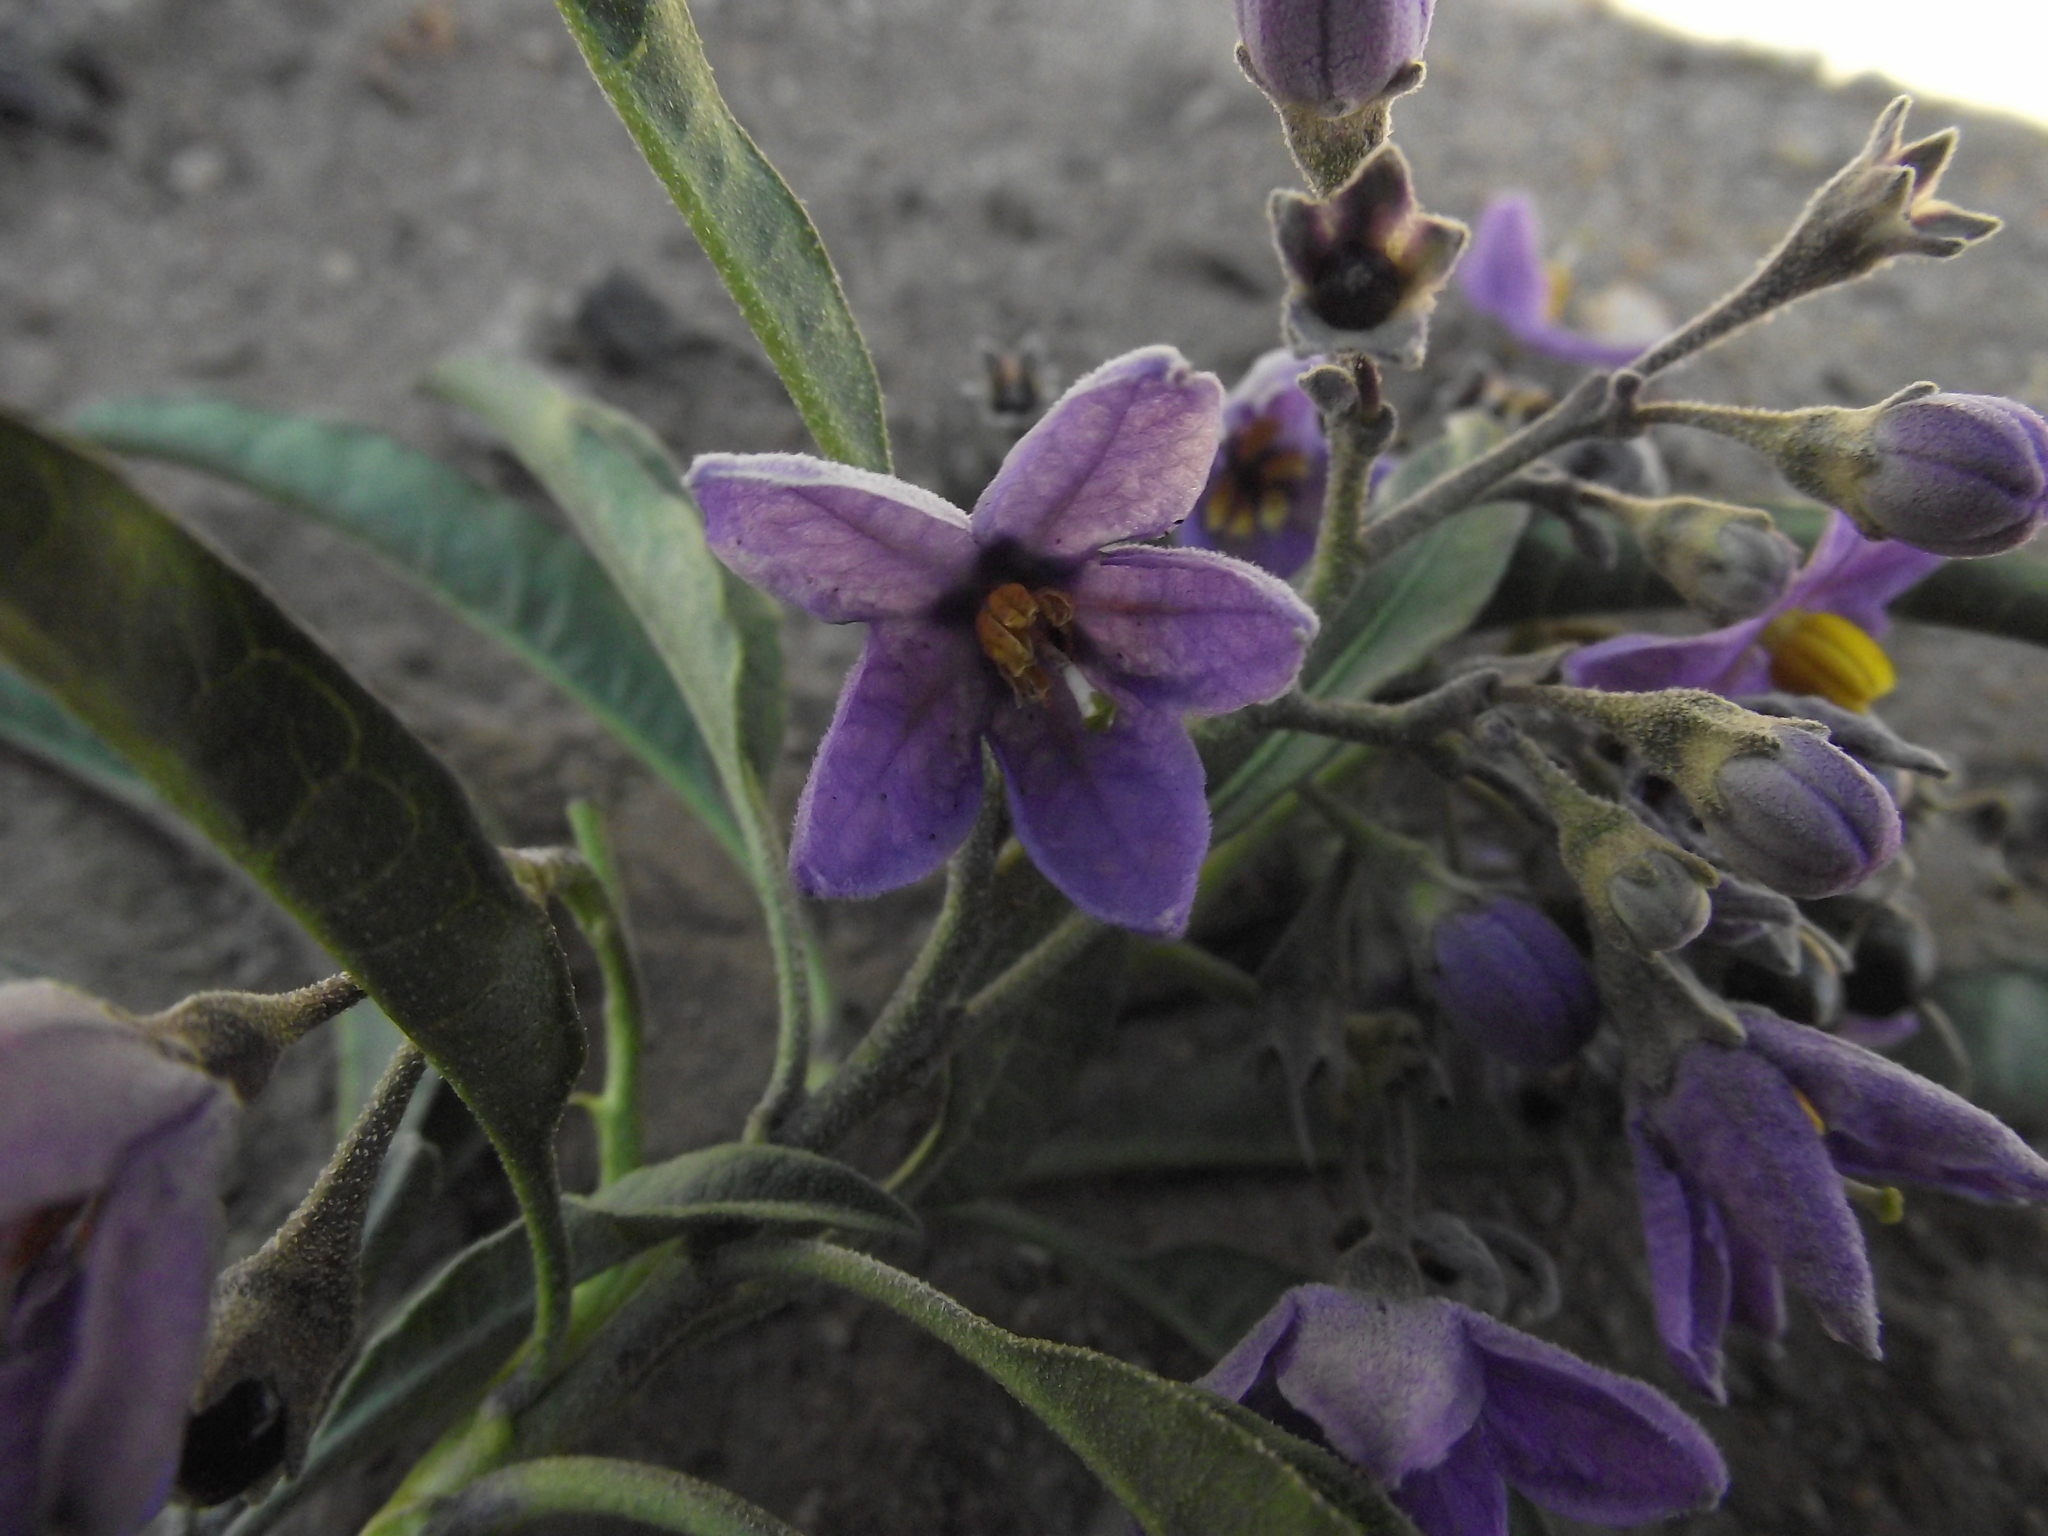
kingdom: Plantae
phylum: Tracheophyta
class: Magnoliopsida
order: Solanales
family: Solanaceae
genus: Solanum
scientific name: Solanum nitidum
